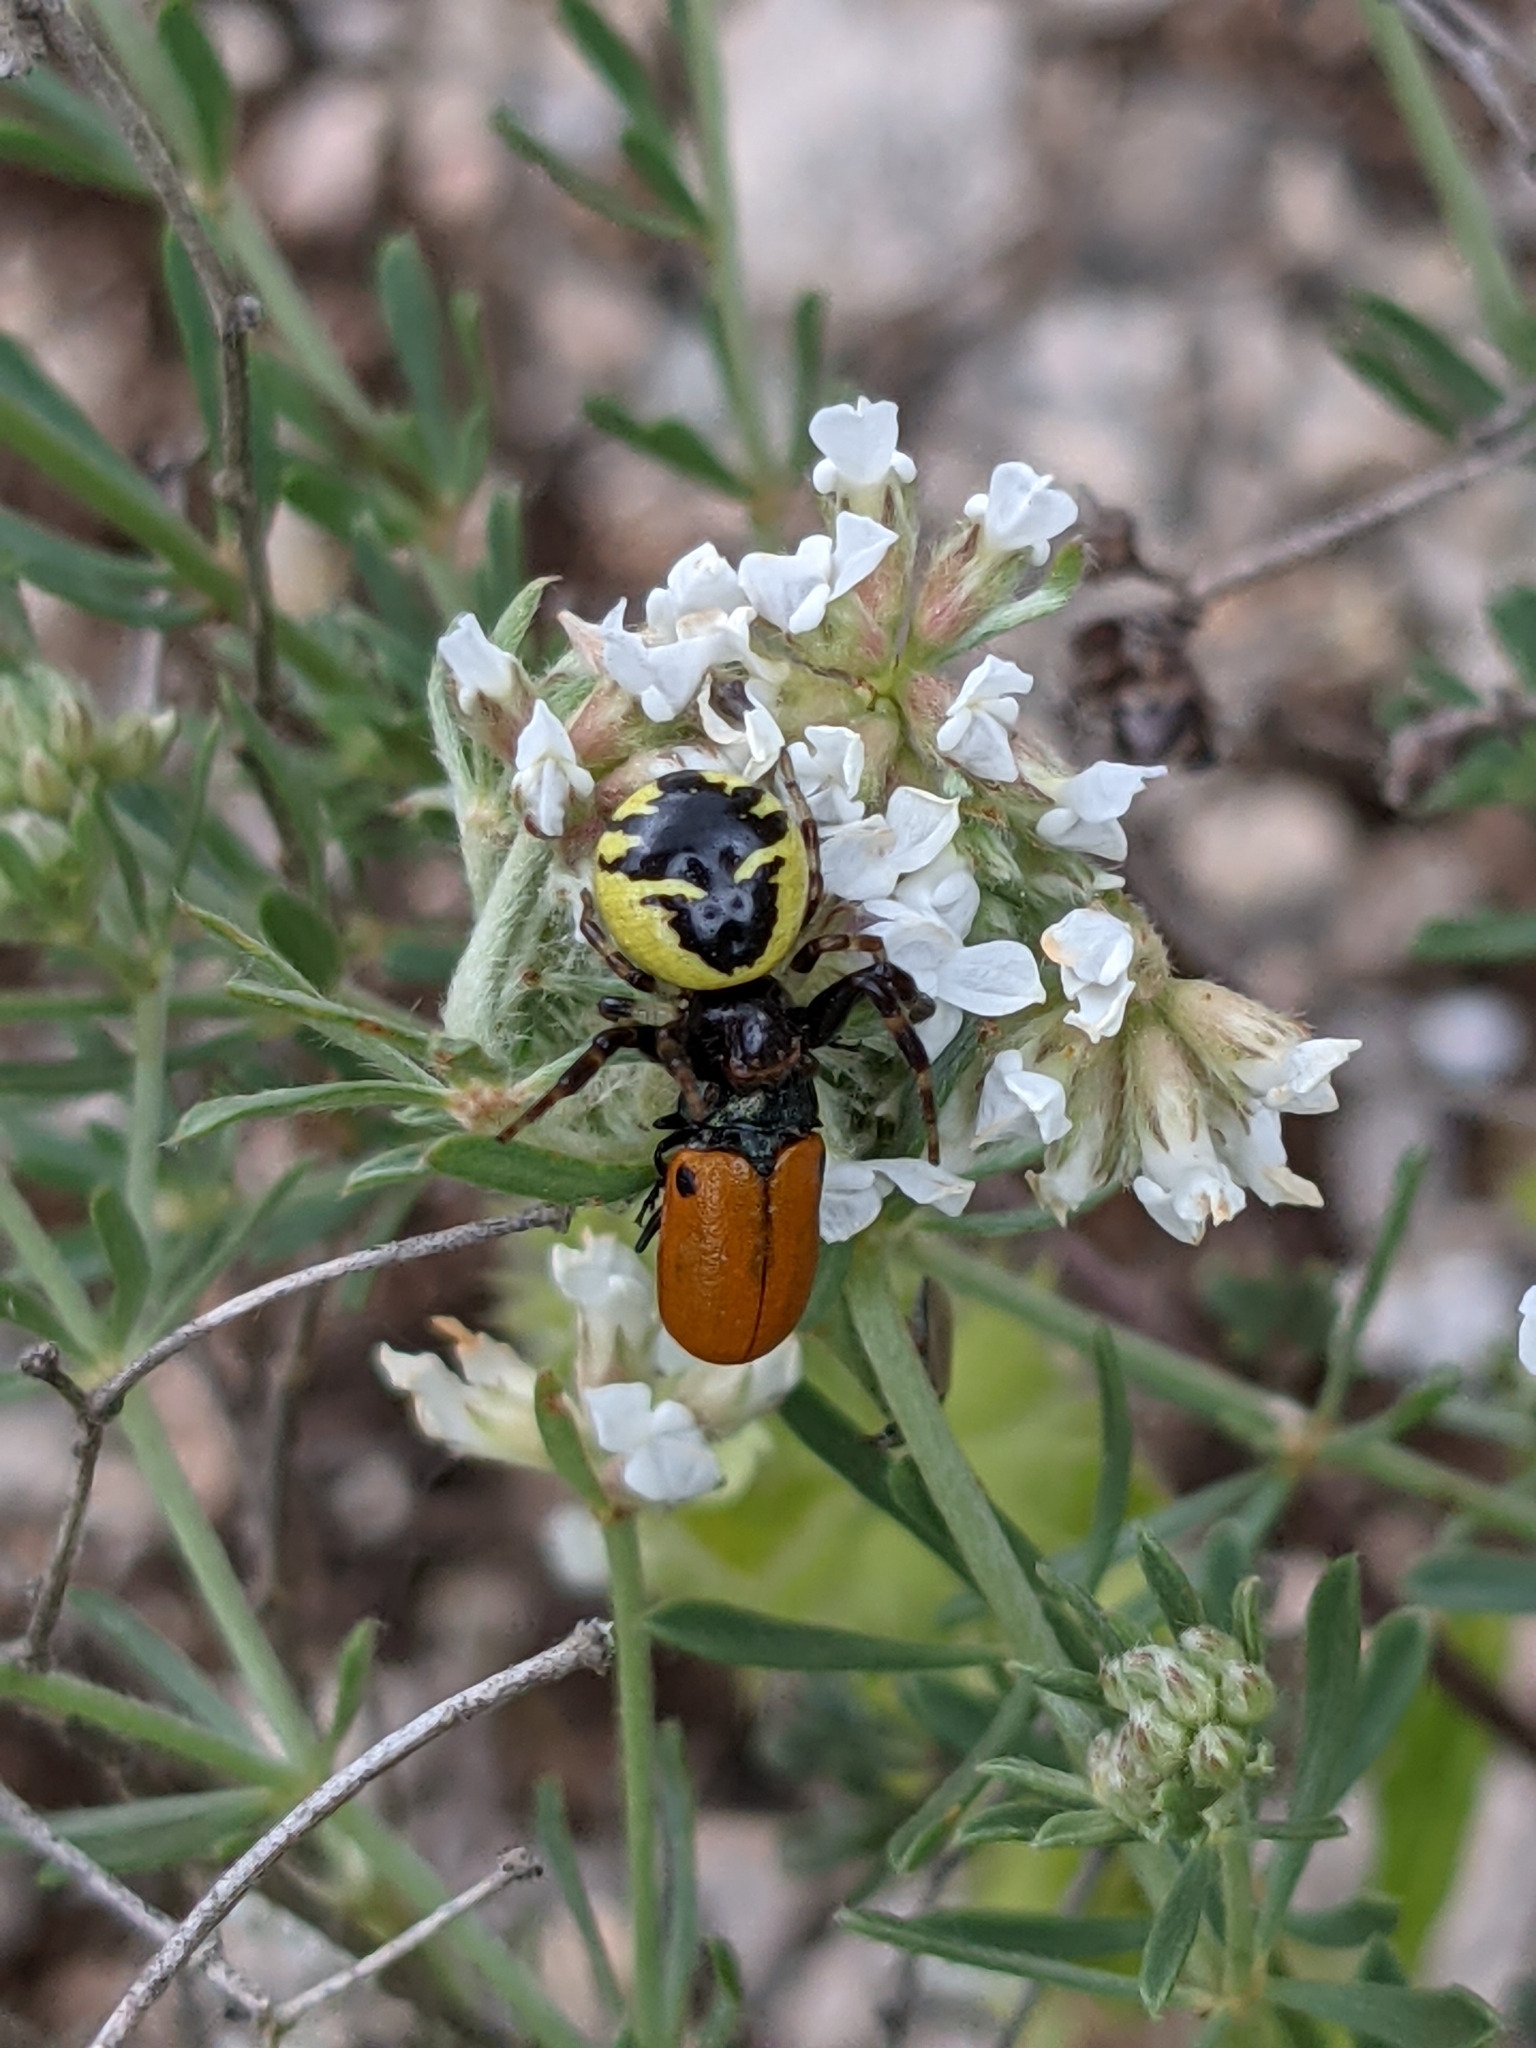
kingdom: Animalia
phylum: Arthropoda
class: Arachnida
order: Araneae
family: Thomisidae
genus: Synema
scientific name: Synema globosum
